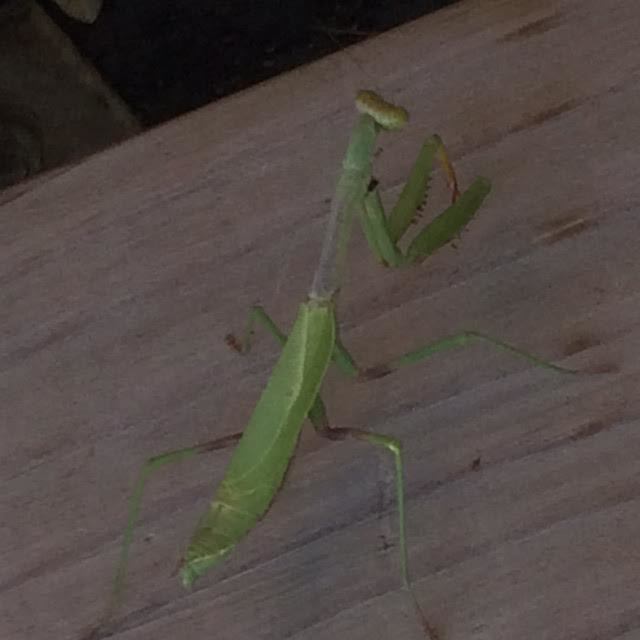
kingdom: Animalia
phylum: Arthropoda
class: Insecta
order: Mantodea
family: Mantidae
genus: Stagmomantis
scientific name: Stagmomantis carolina
